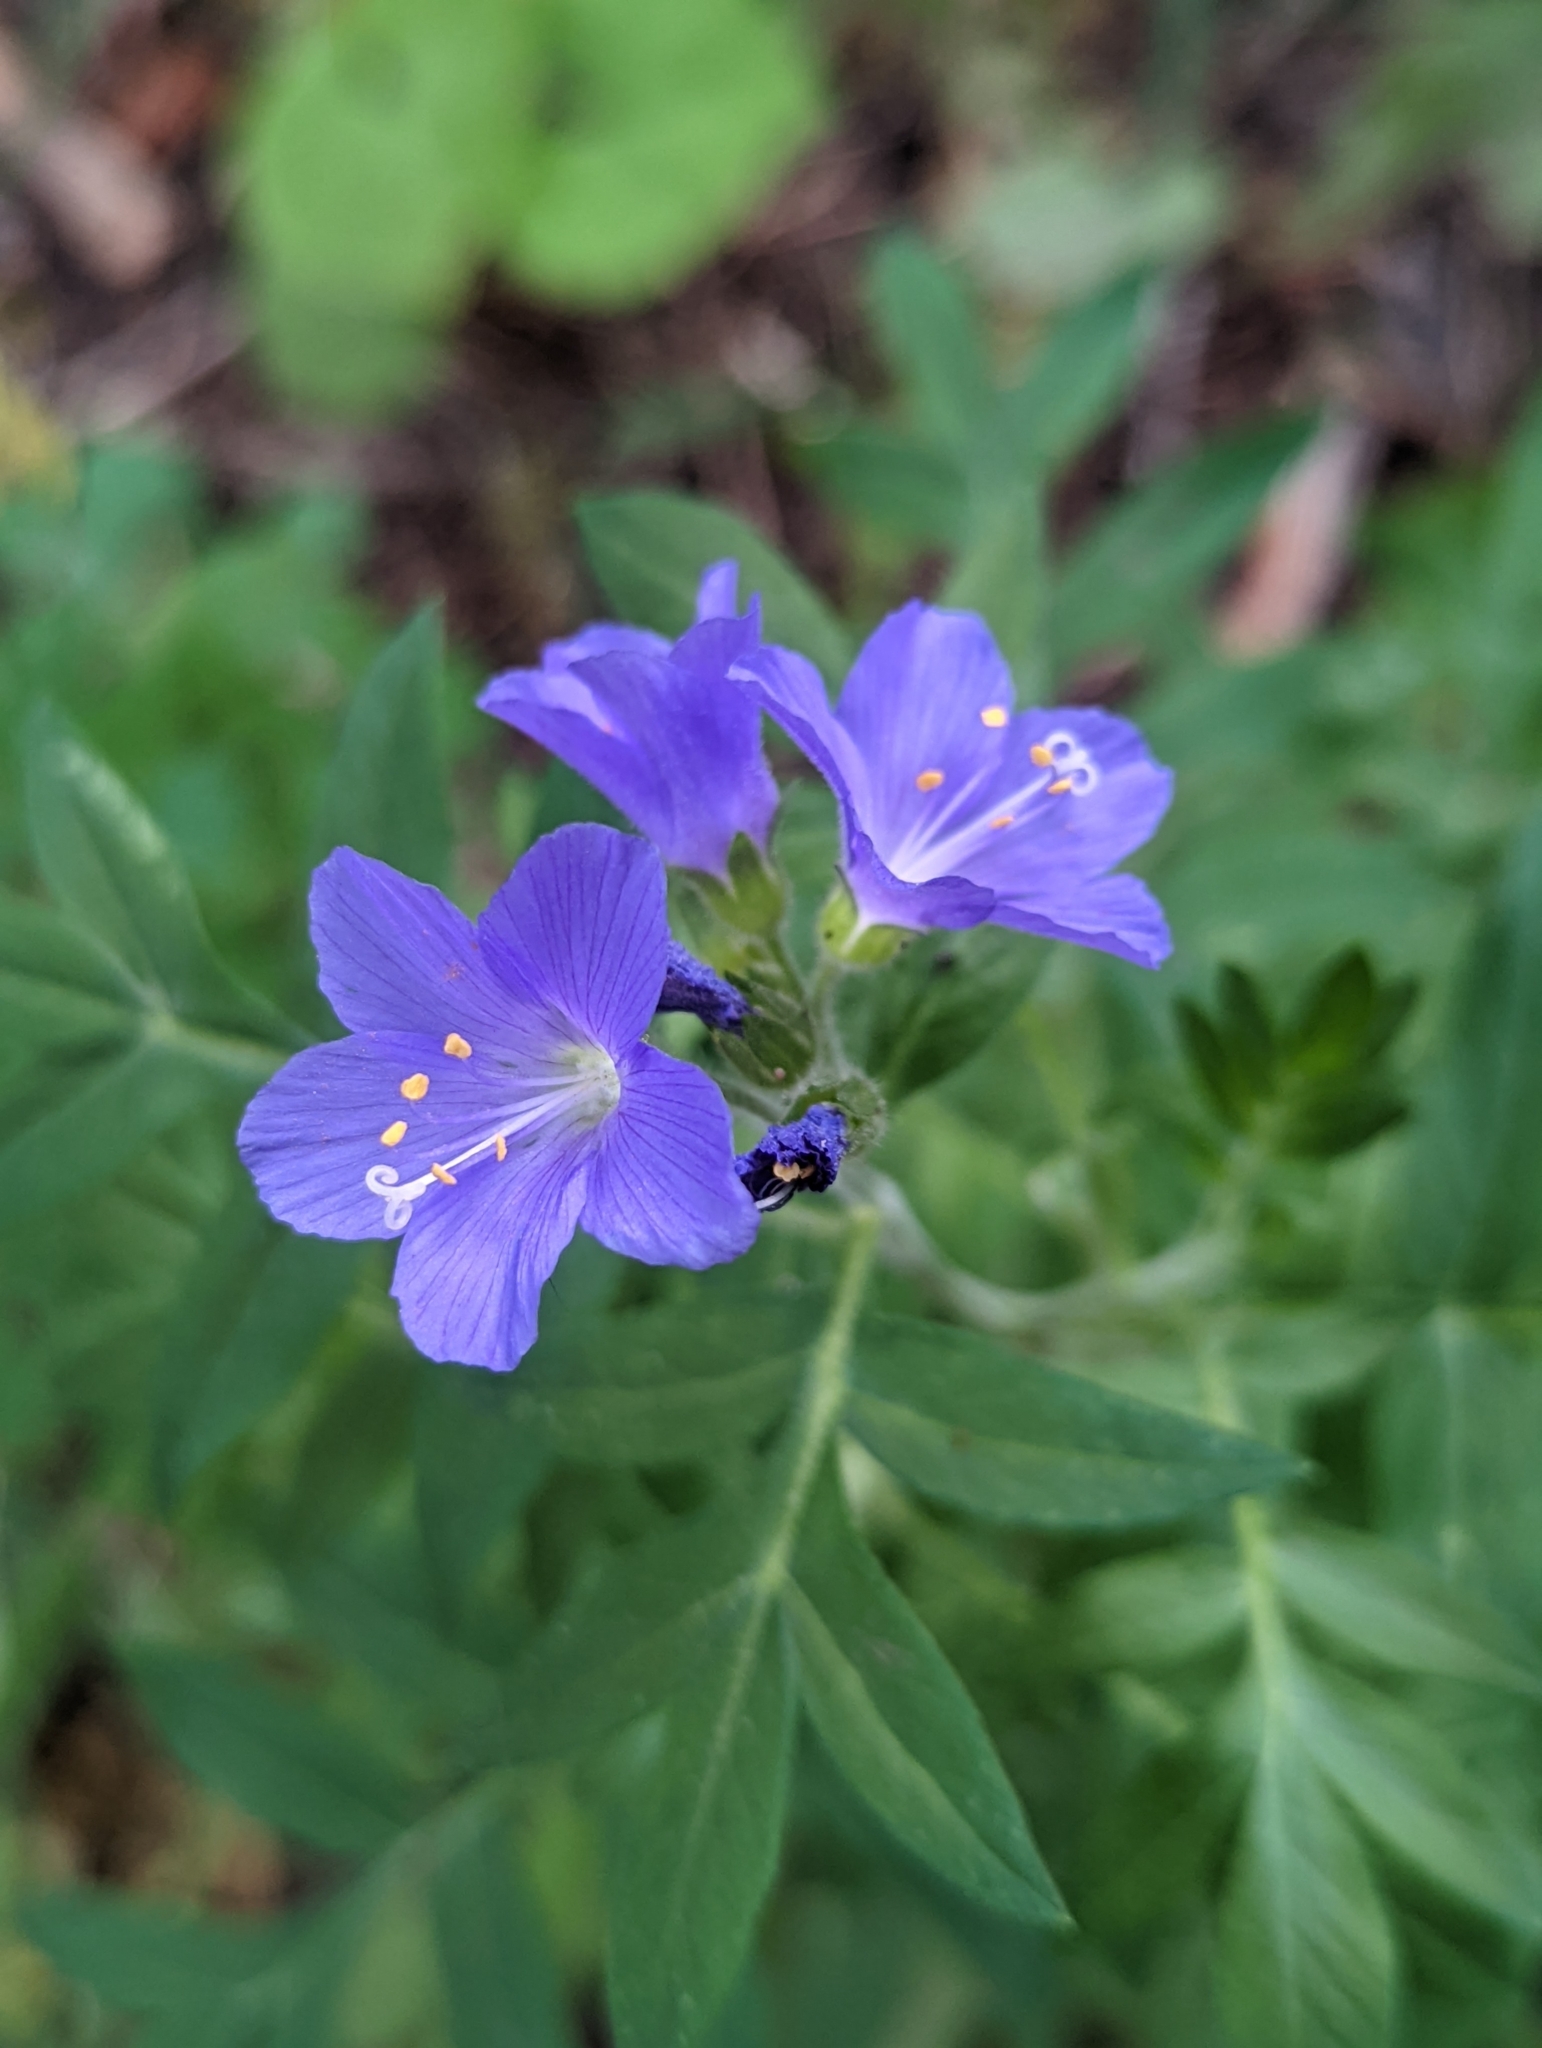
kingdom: Plantae
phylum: Tracheophyta
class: Magnoliopsida
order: Ericales
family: Polemoniaceae
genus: Polemonium
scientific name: Polemonium foliosissimum
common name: Leafy jacob's-ladder
